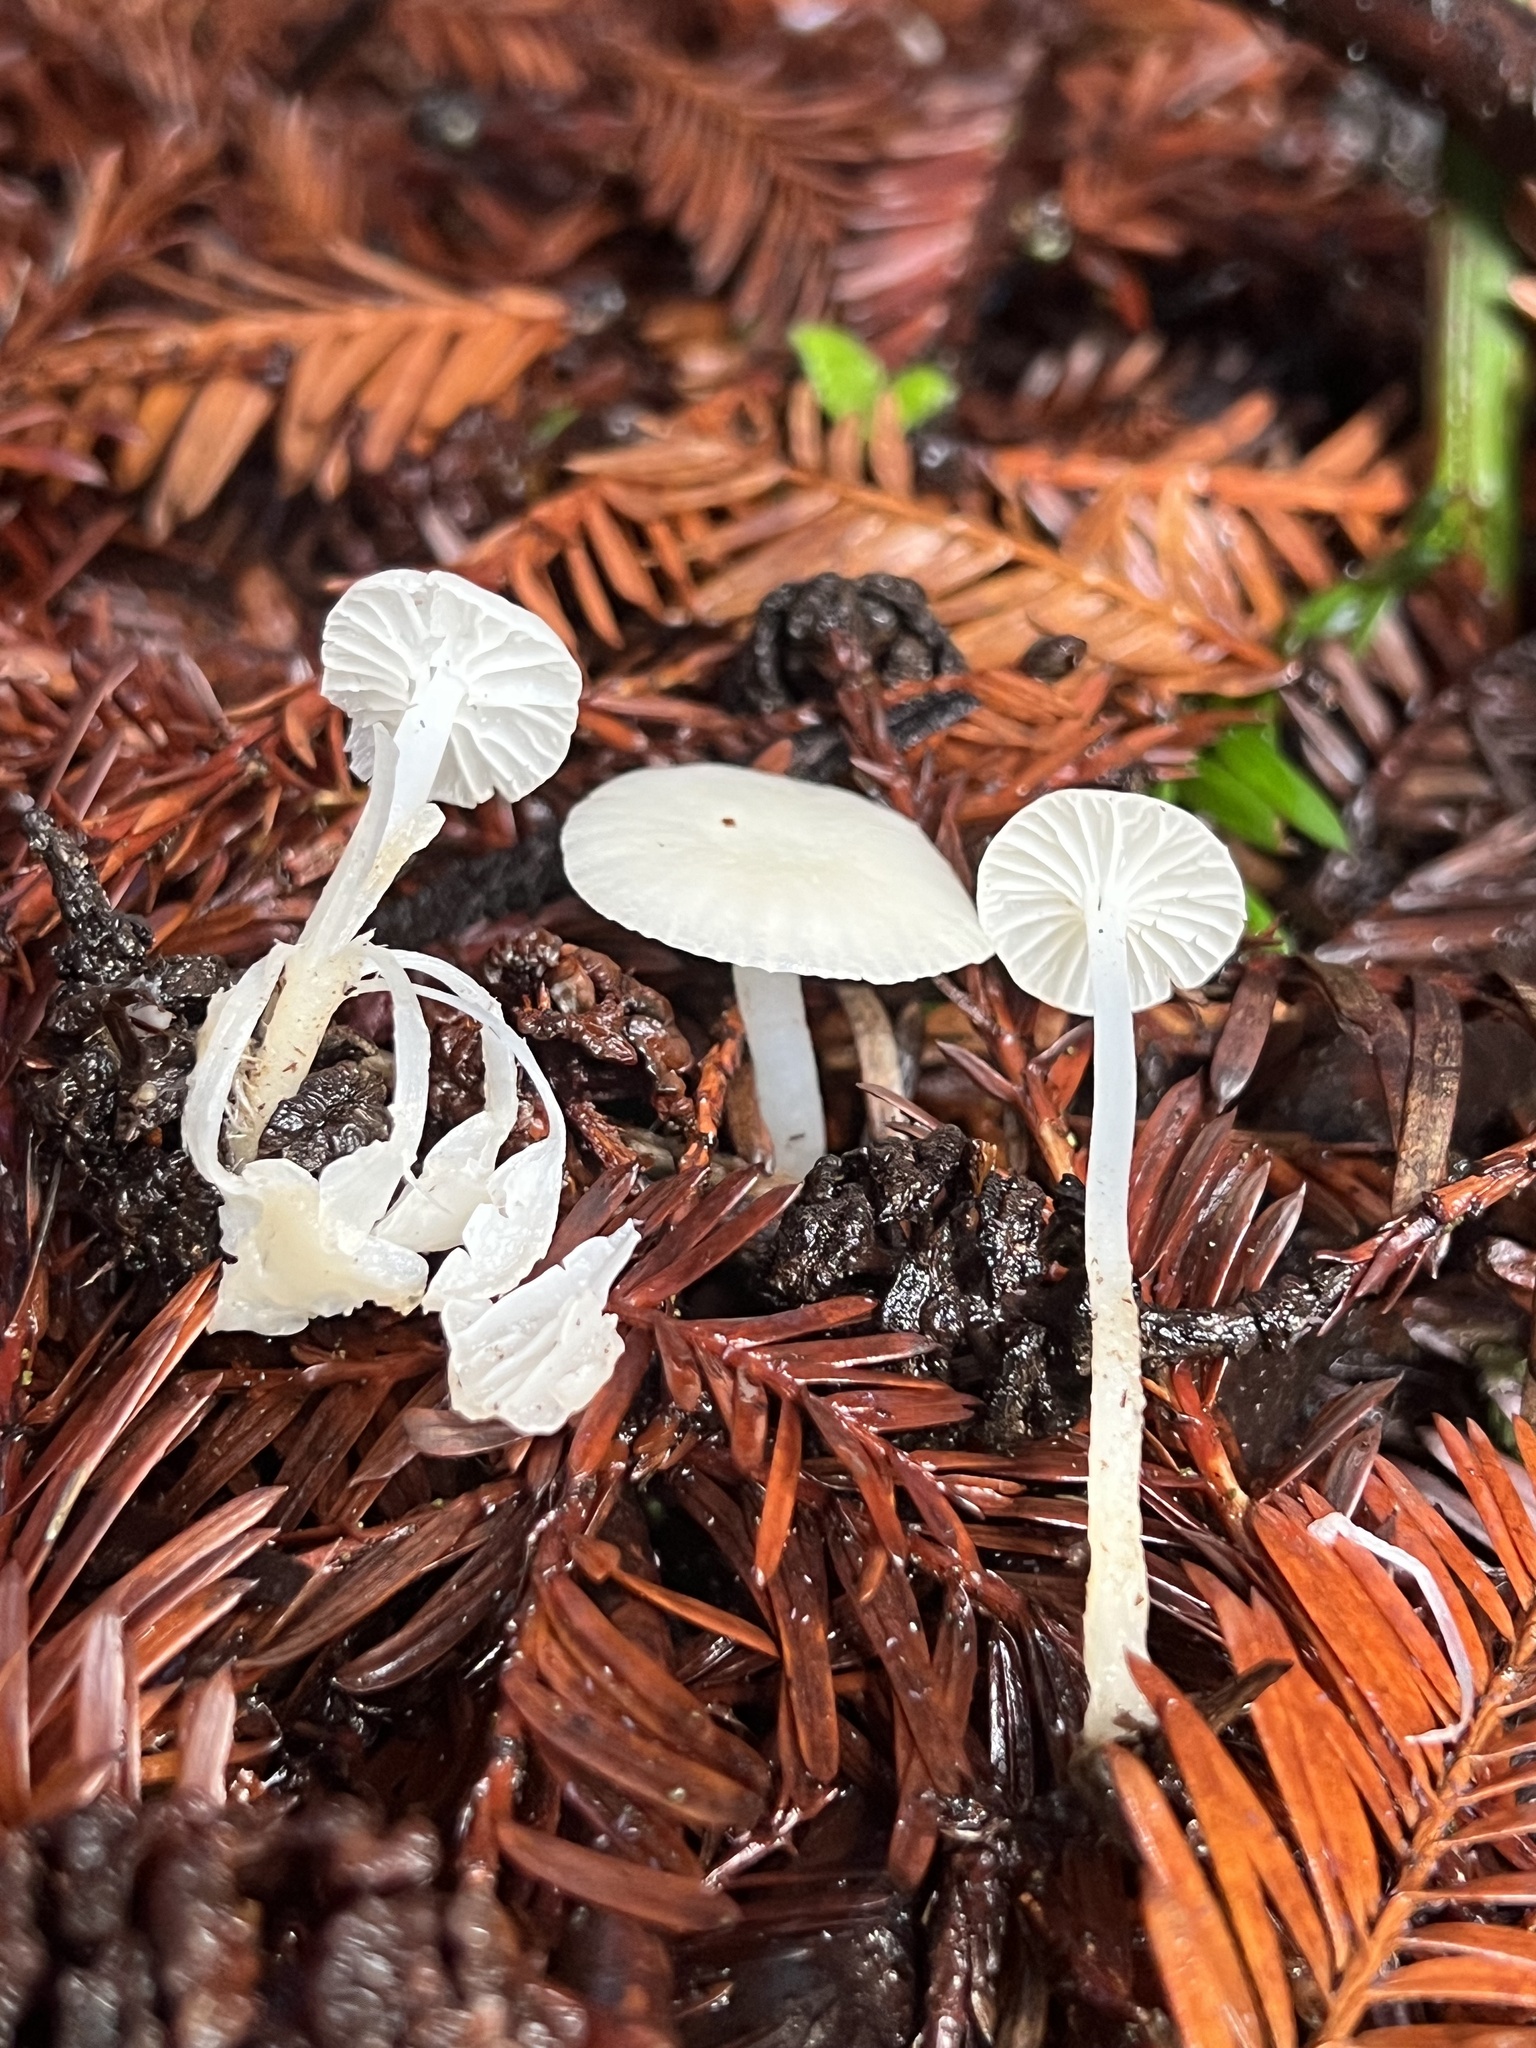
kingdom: Fungi
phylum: Basidiomycota
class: Agaricomycetes
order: Agaricales
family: Hygrophoraceae
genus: Cuphophyllus
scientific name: Cuphophyllus russocoriaceus
